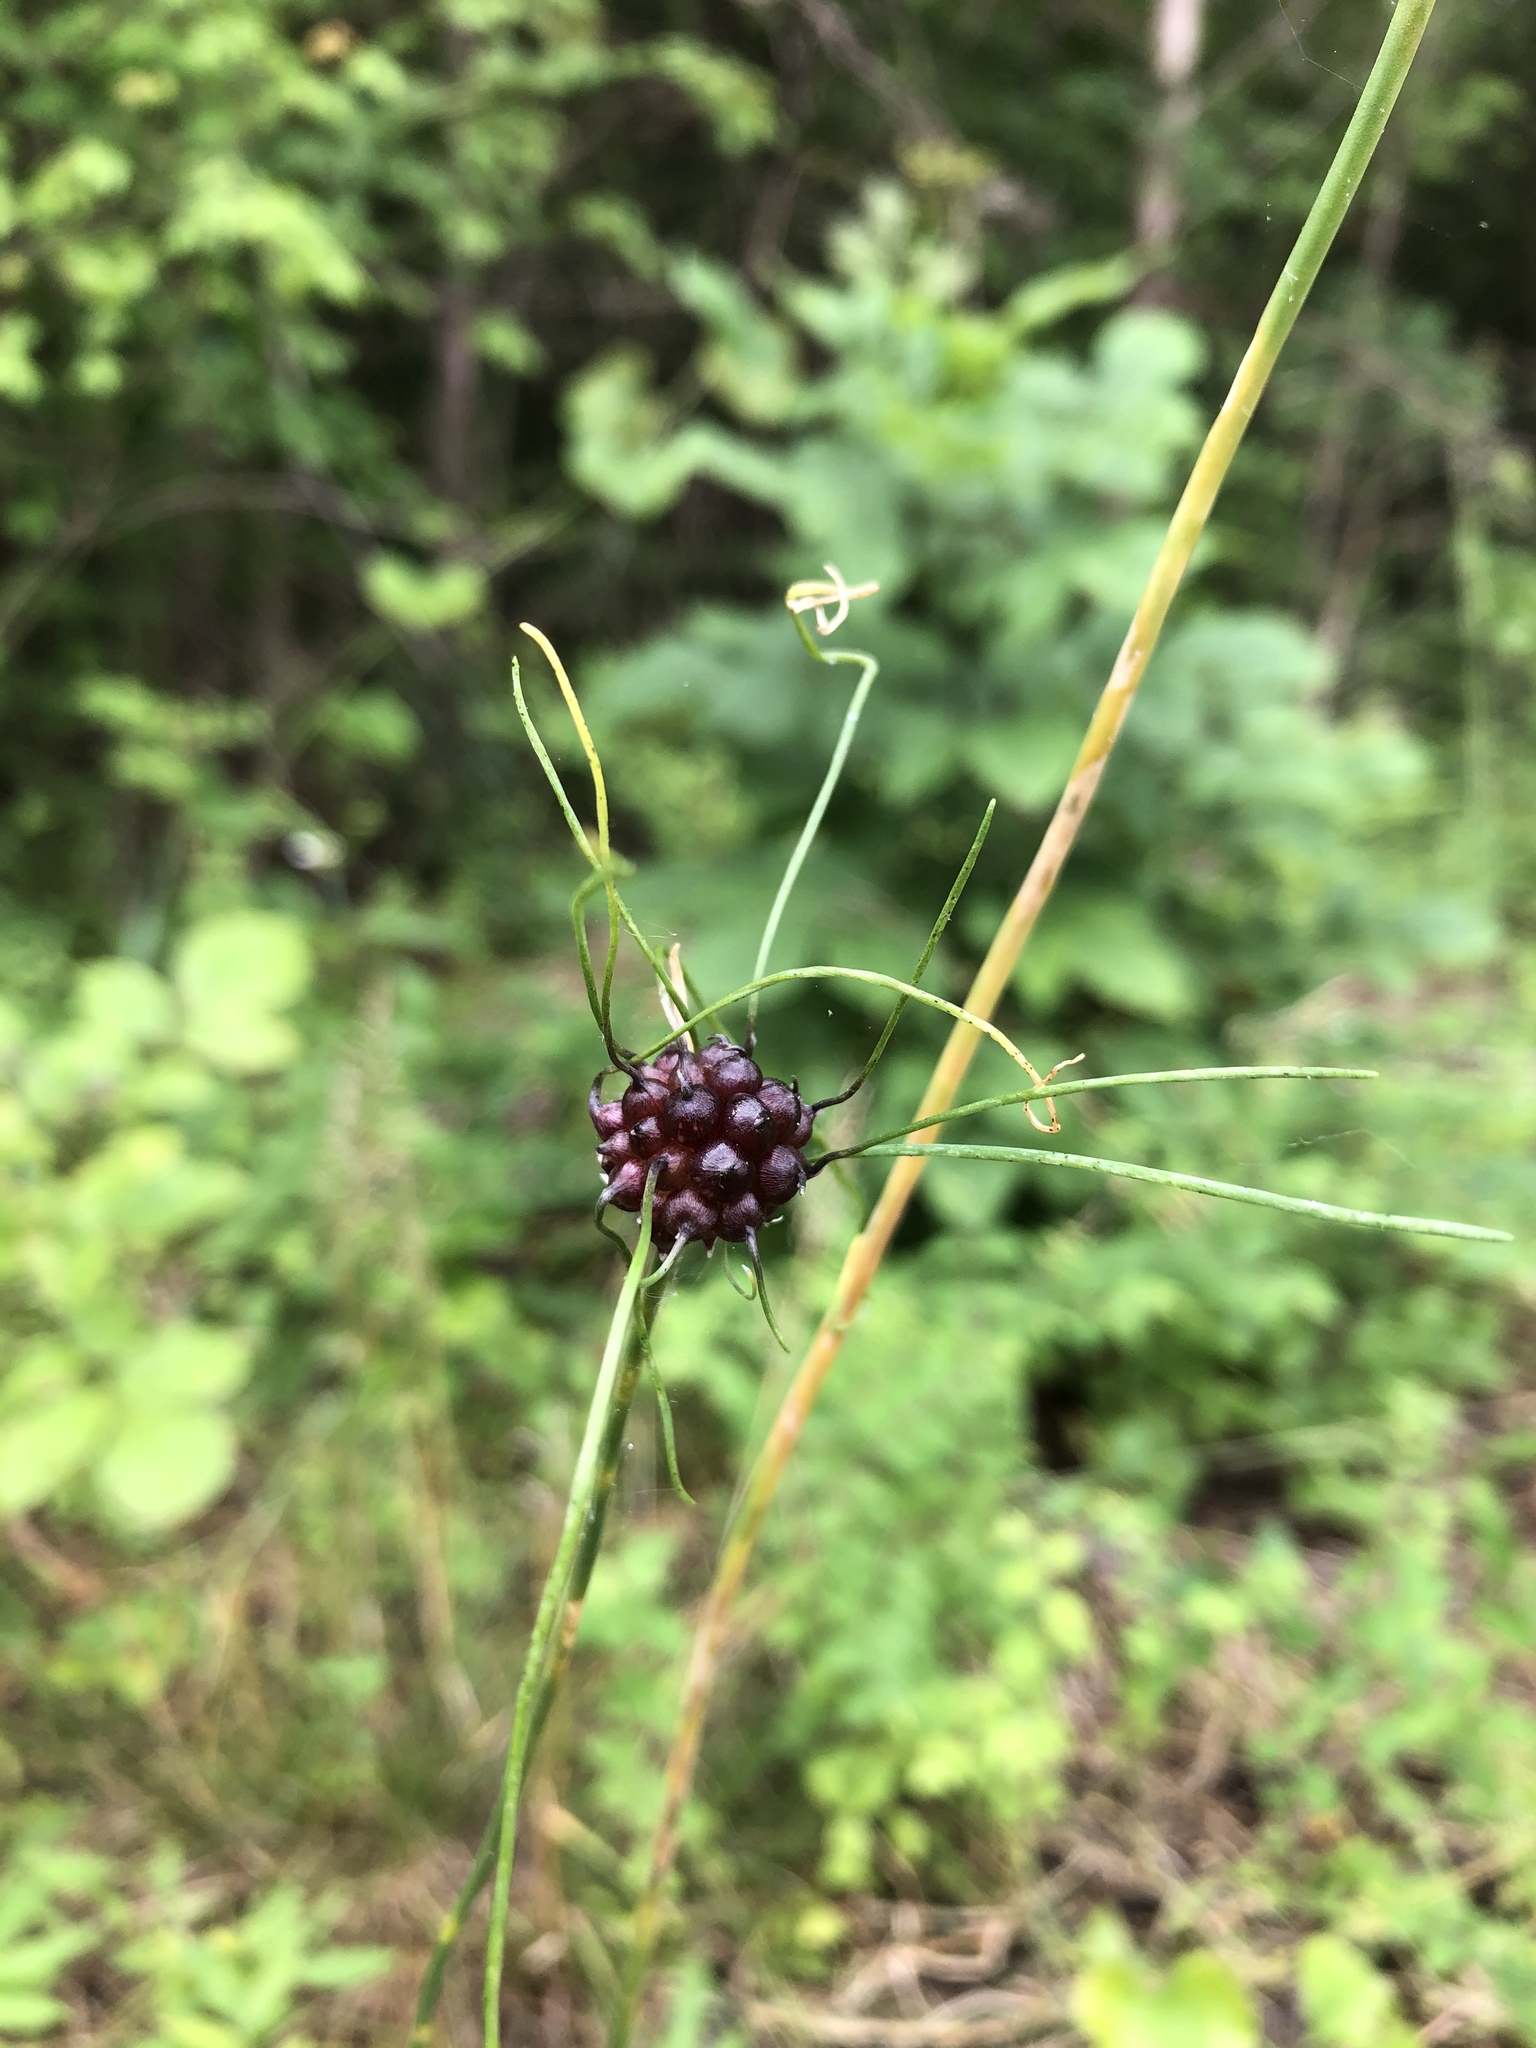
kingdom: Plantae
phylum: Tracheophyta
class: Liliopsida
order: Asparagales
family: Amaryllidaceae
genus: Allium
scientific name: Allium vineale
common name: Crow garlic
